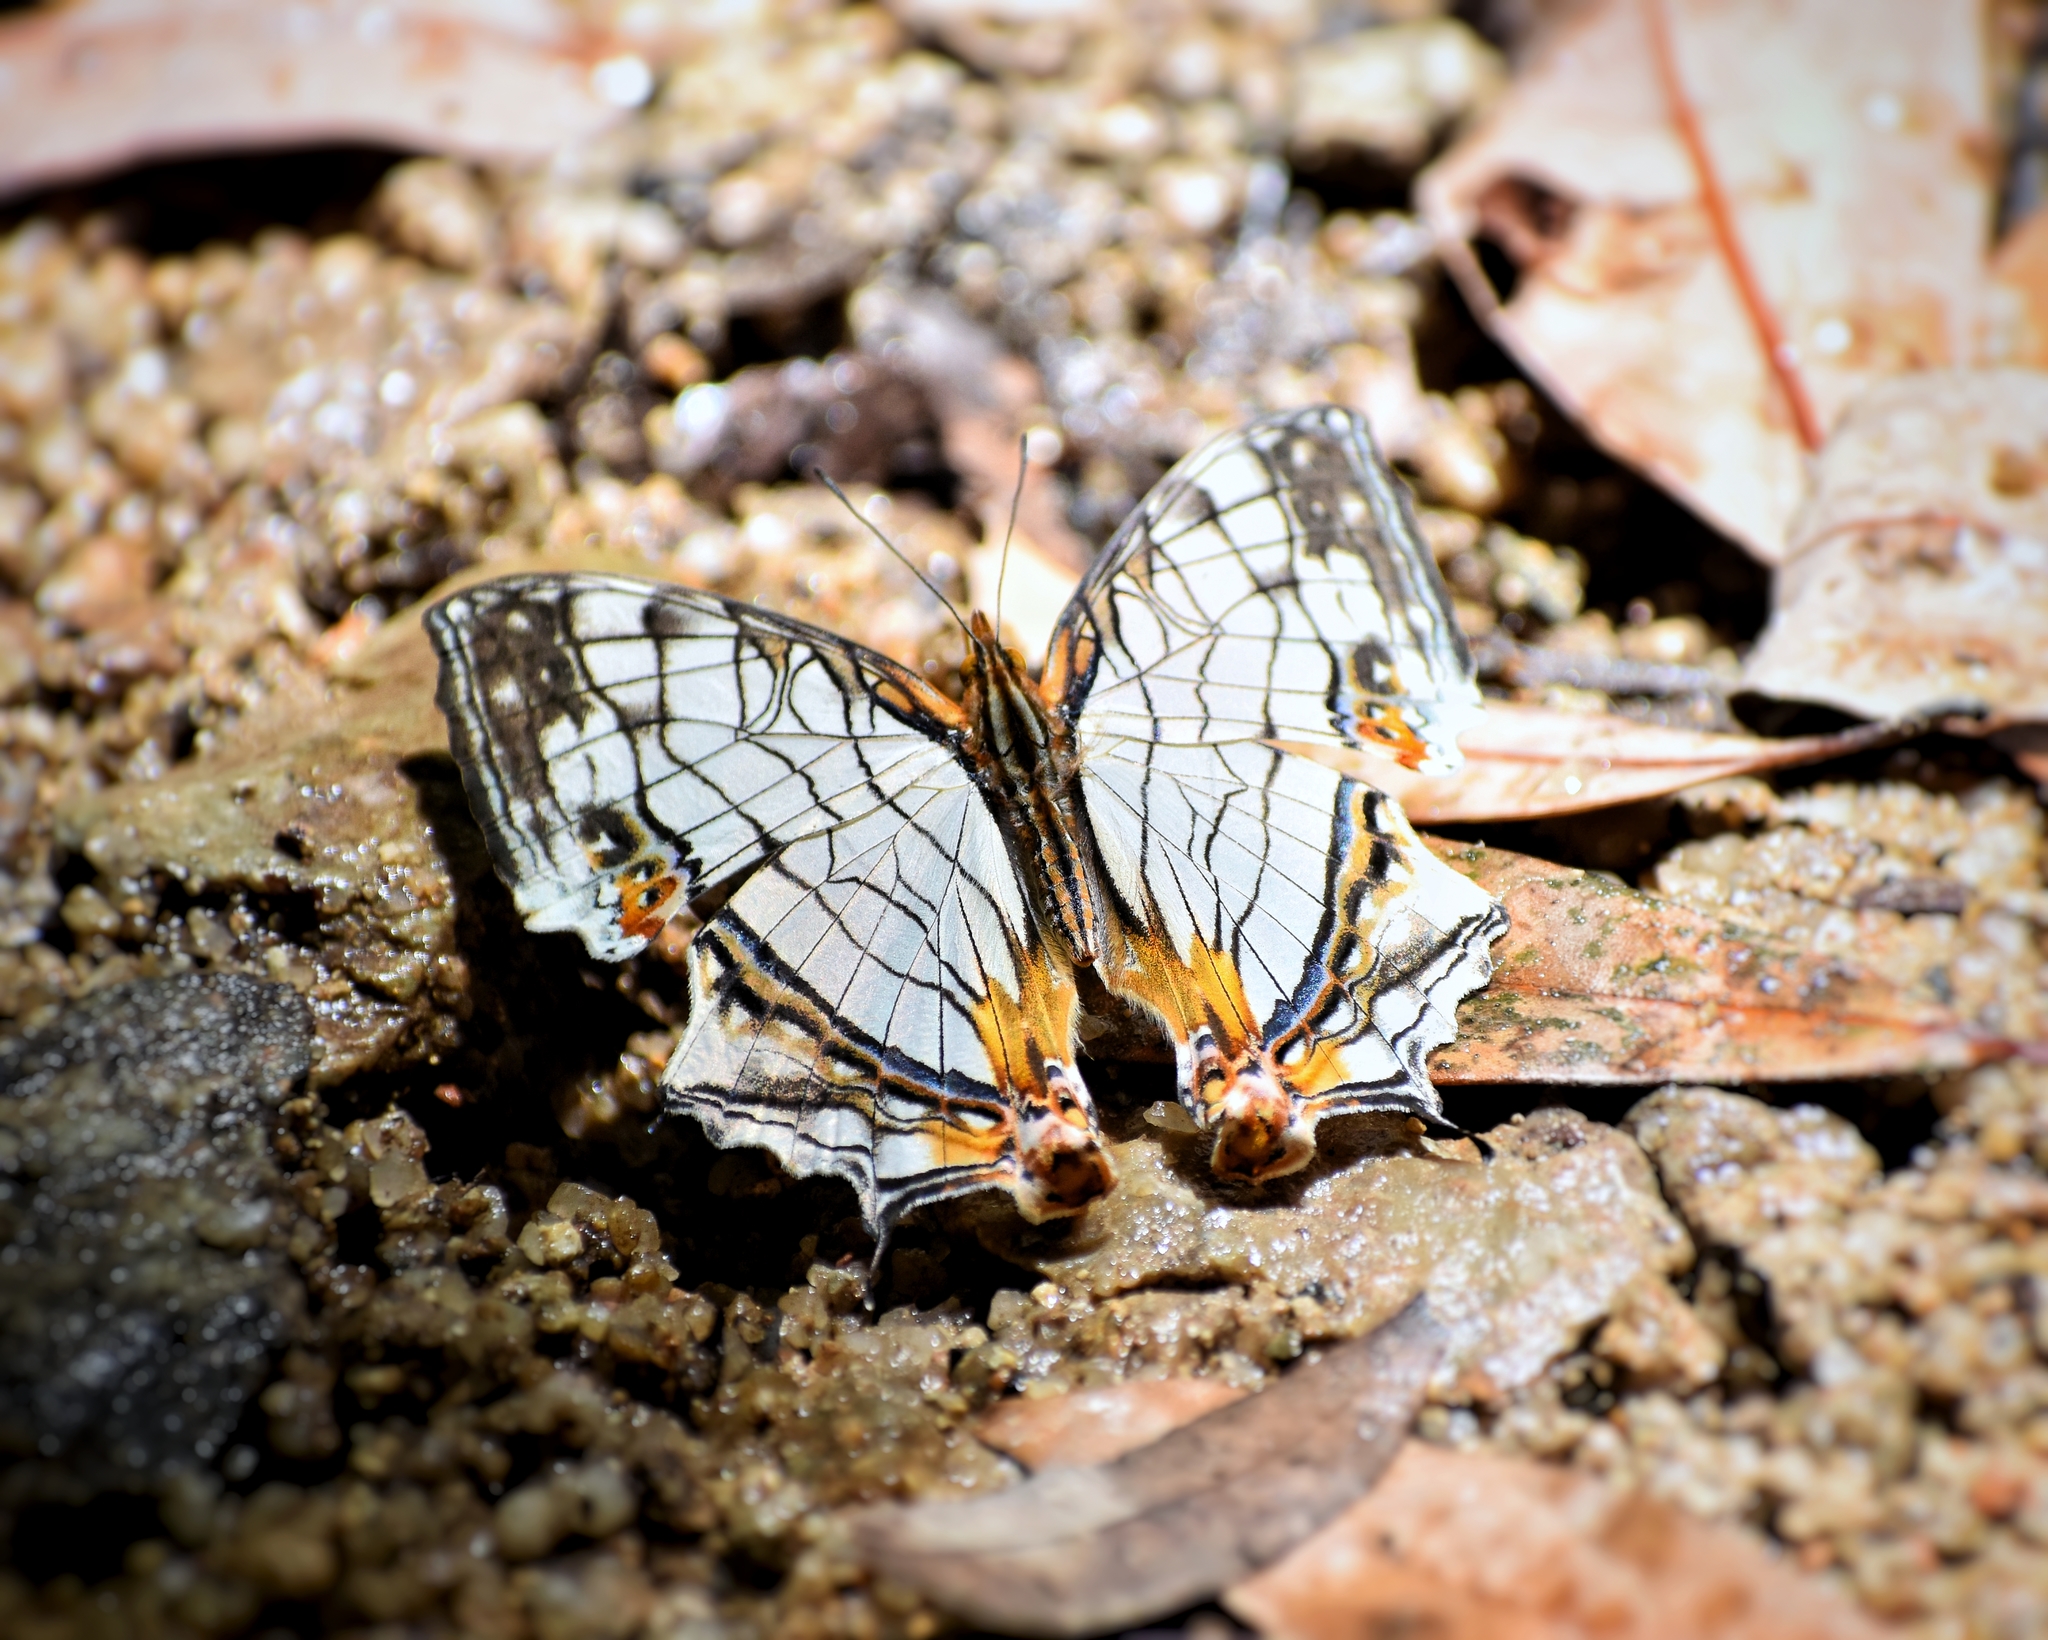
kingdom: Animalia
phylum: Arthropoda
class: Insecta
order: Lepidoptera
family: Nymphalidae
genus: Cyrestis
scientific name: Cyrestis thyodamas
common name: Common mapwing
